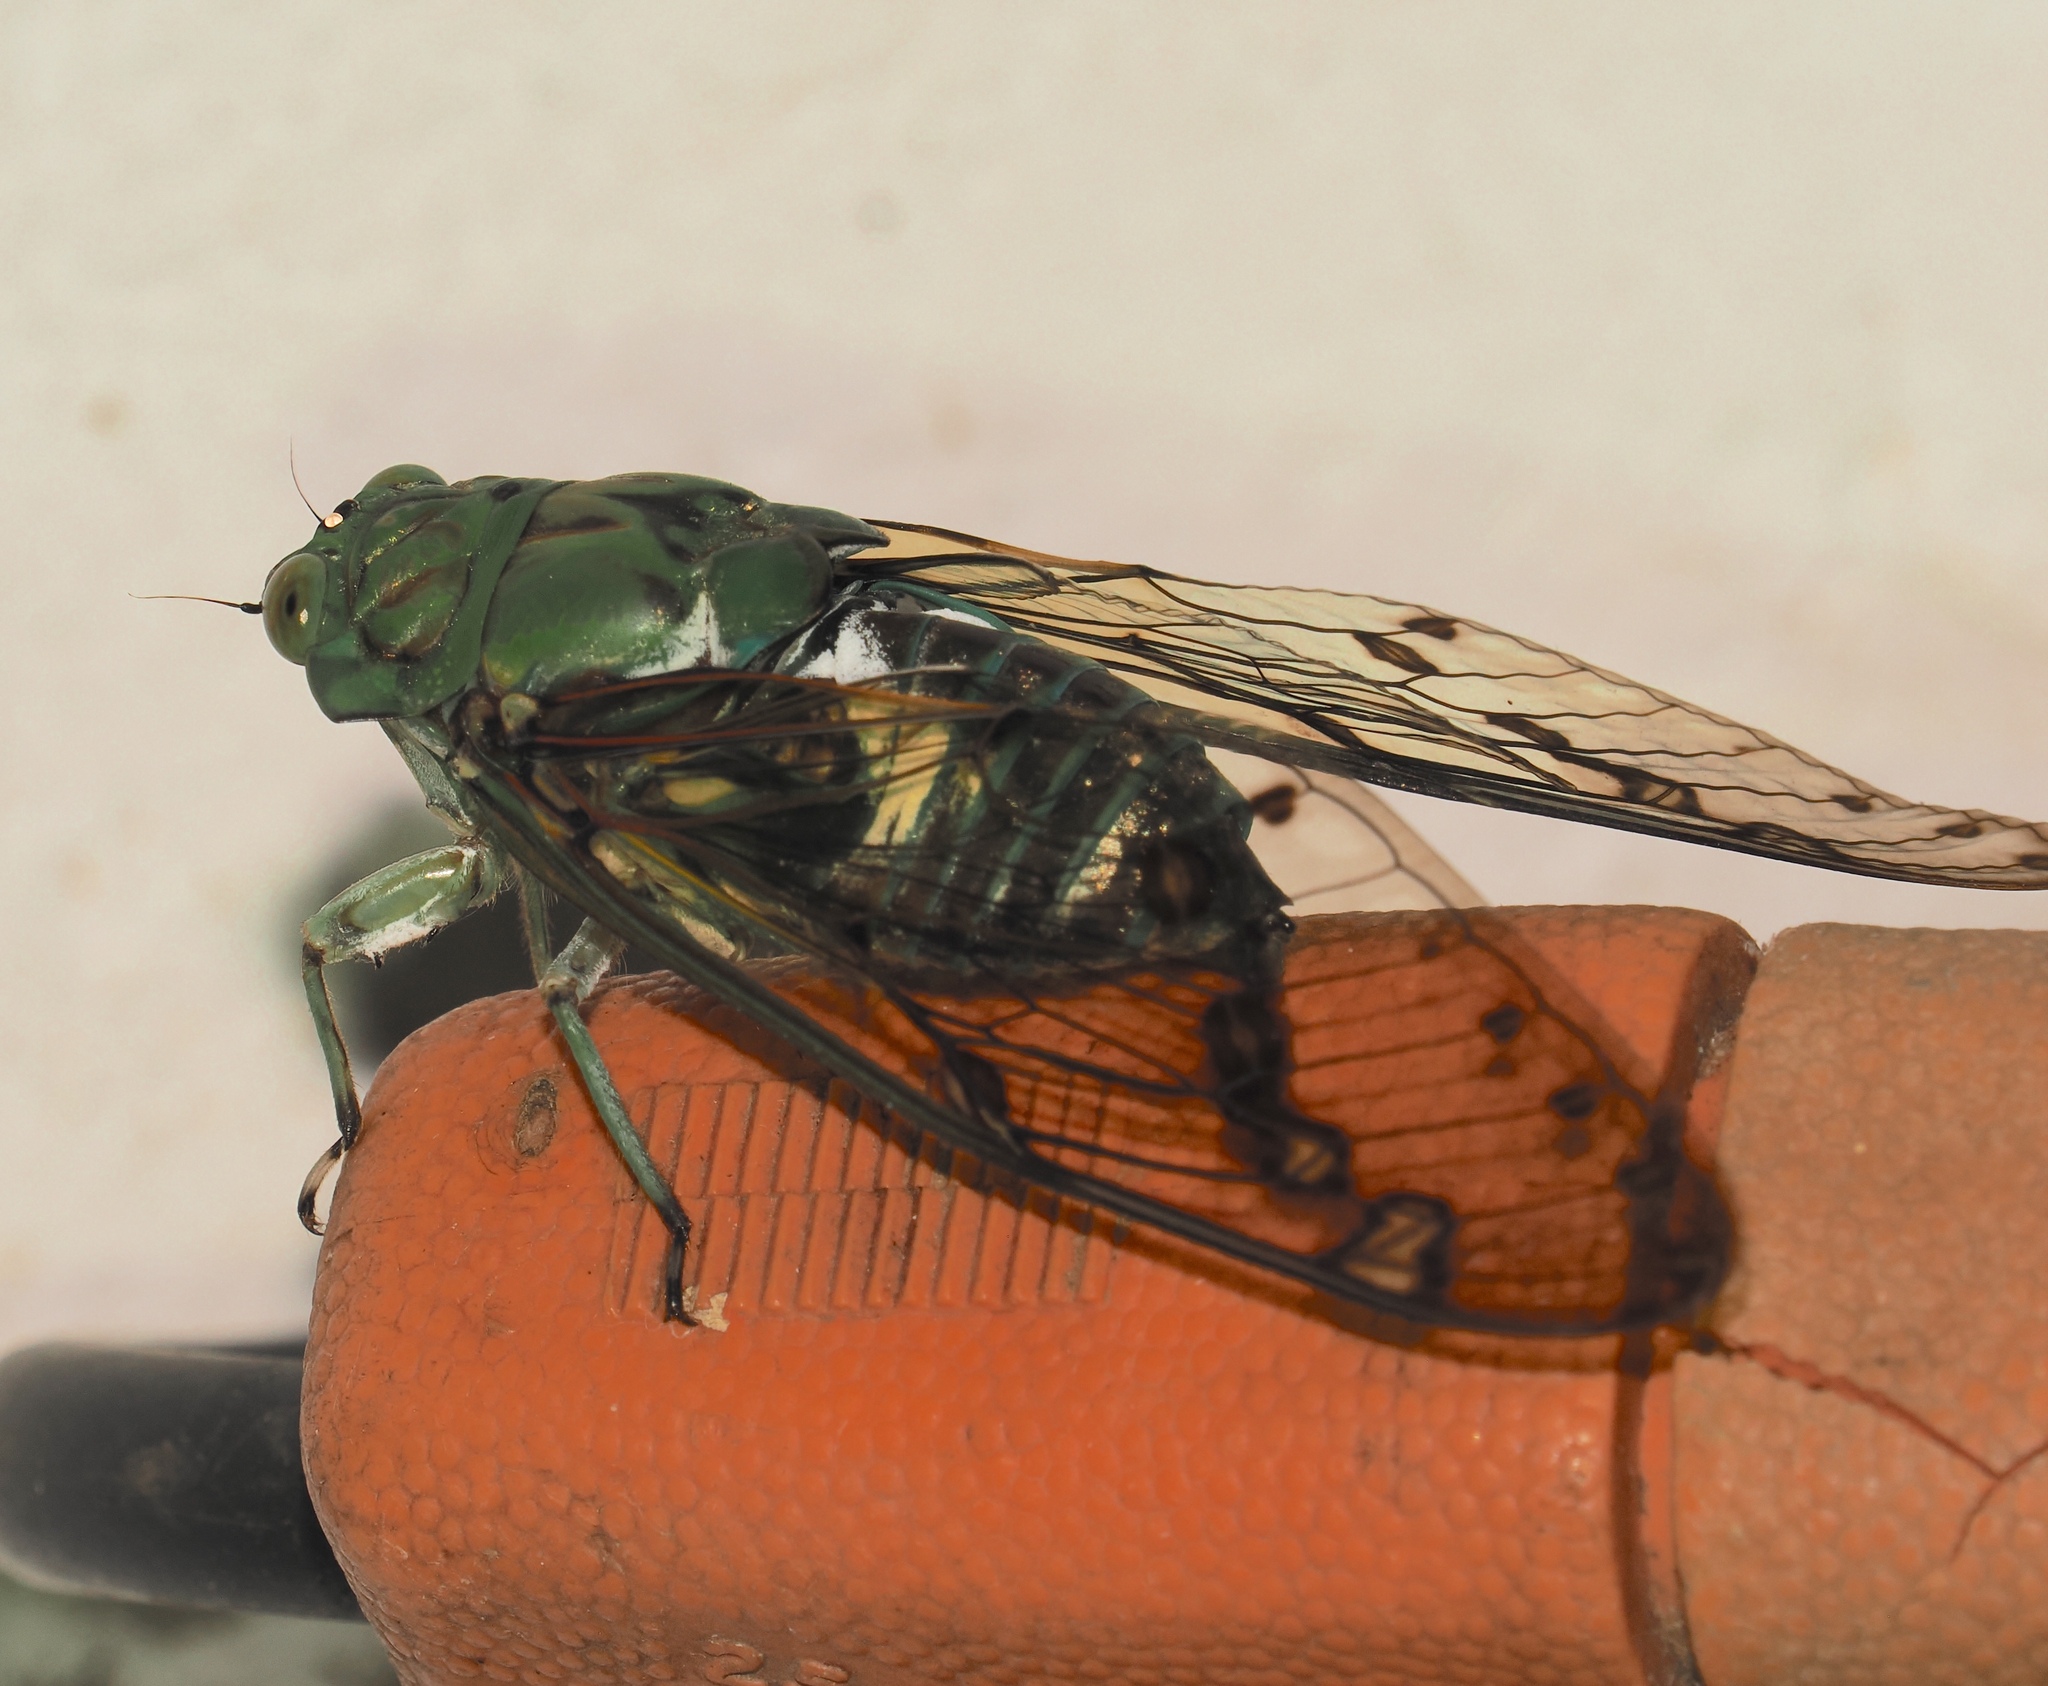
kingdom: Animalia
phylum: Arthropoda
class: Insecta
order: Hemiptera
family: Cicadidae
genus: Zammara
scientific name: Zammara tympanum
